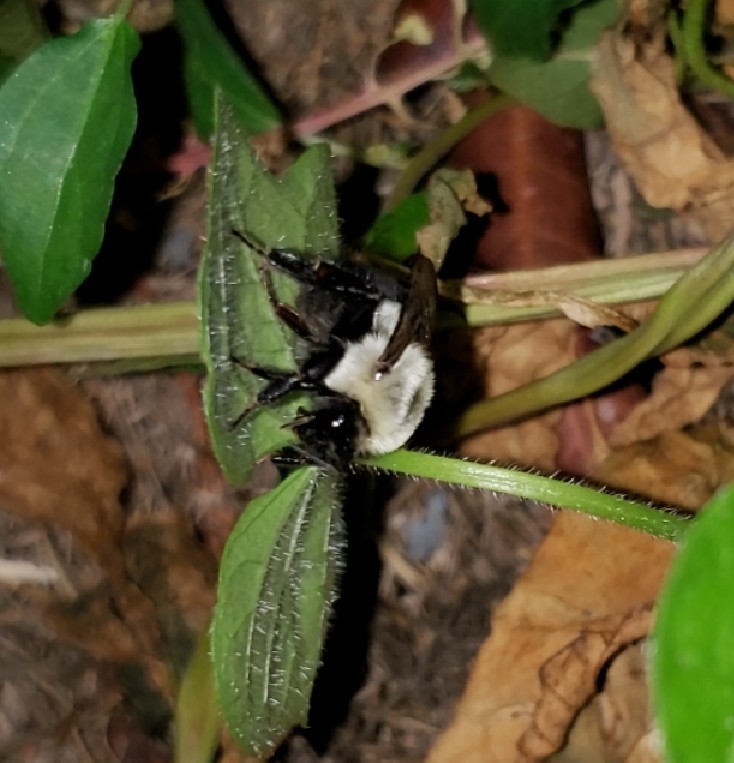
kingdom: Animalia
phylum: Arthropoda
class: Insecta
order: Hymenoptera
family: Apidae
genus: Bombus
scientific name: Bombus impatiens
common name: Common eastern bumble bee
